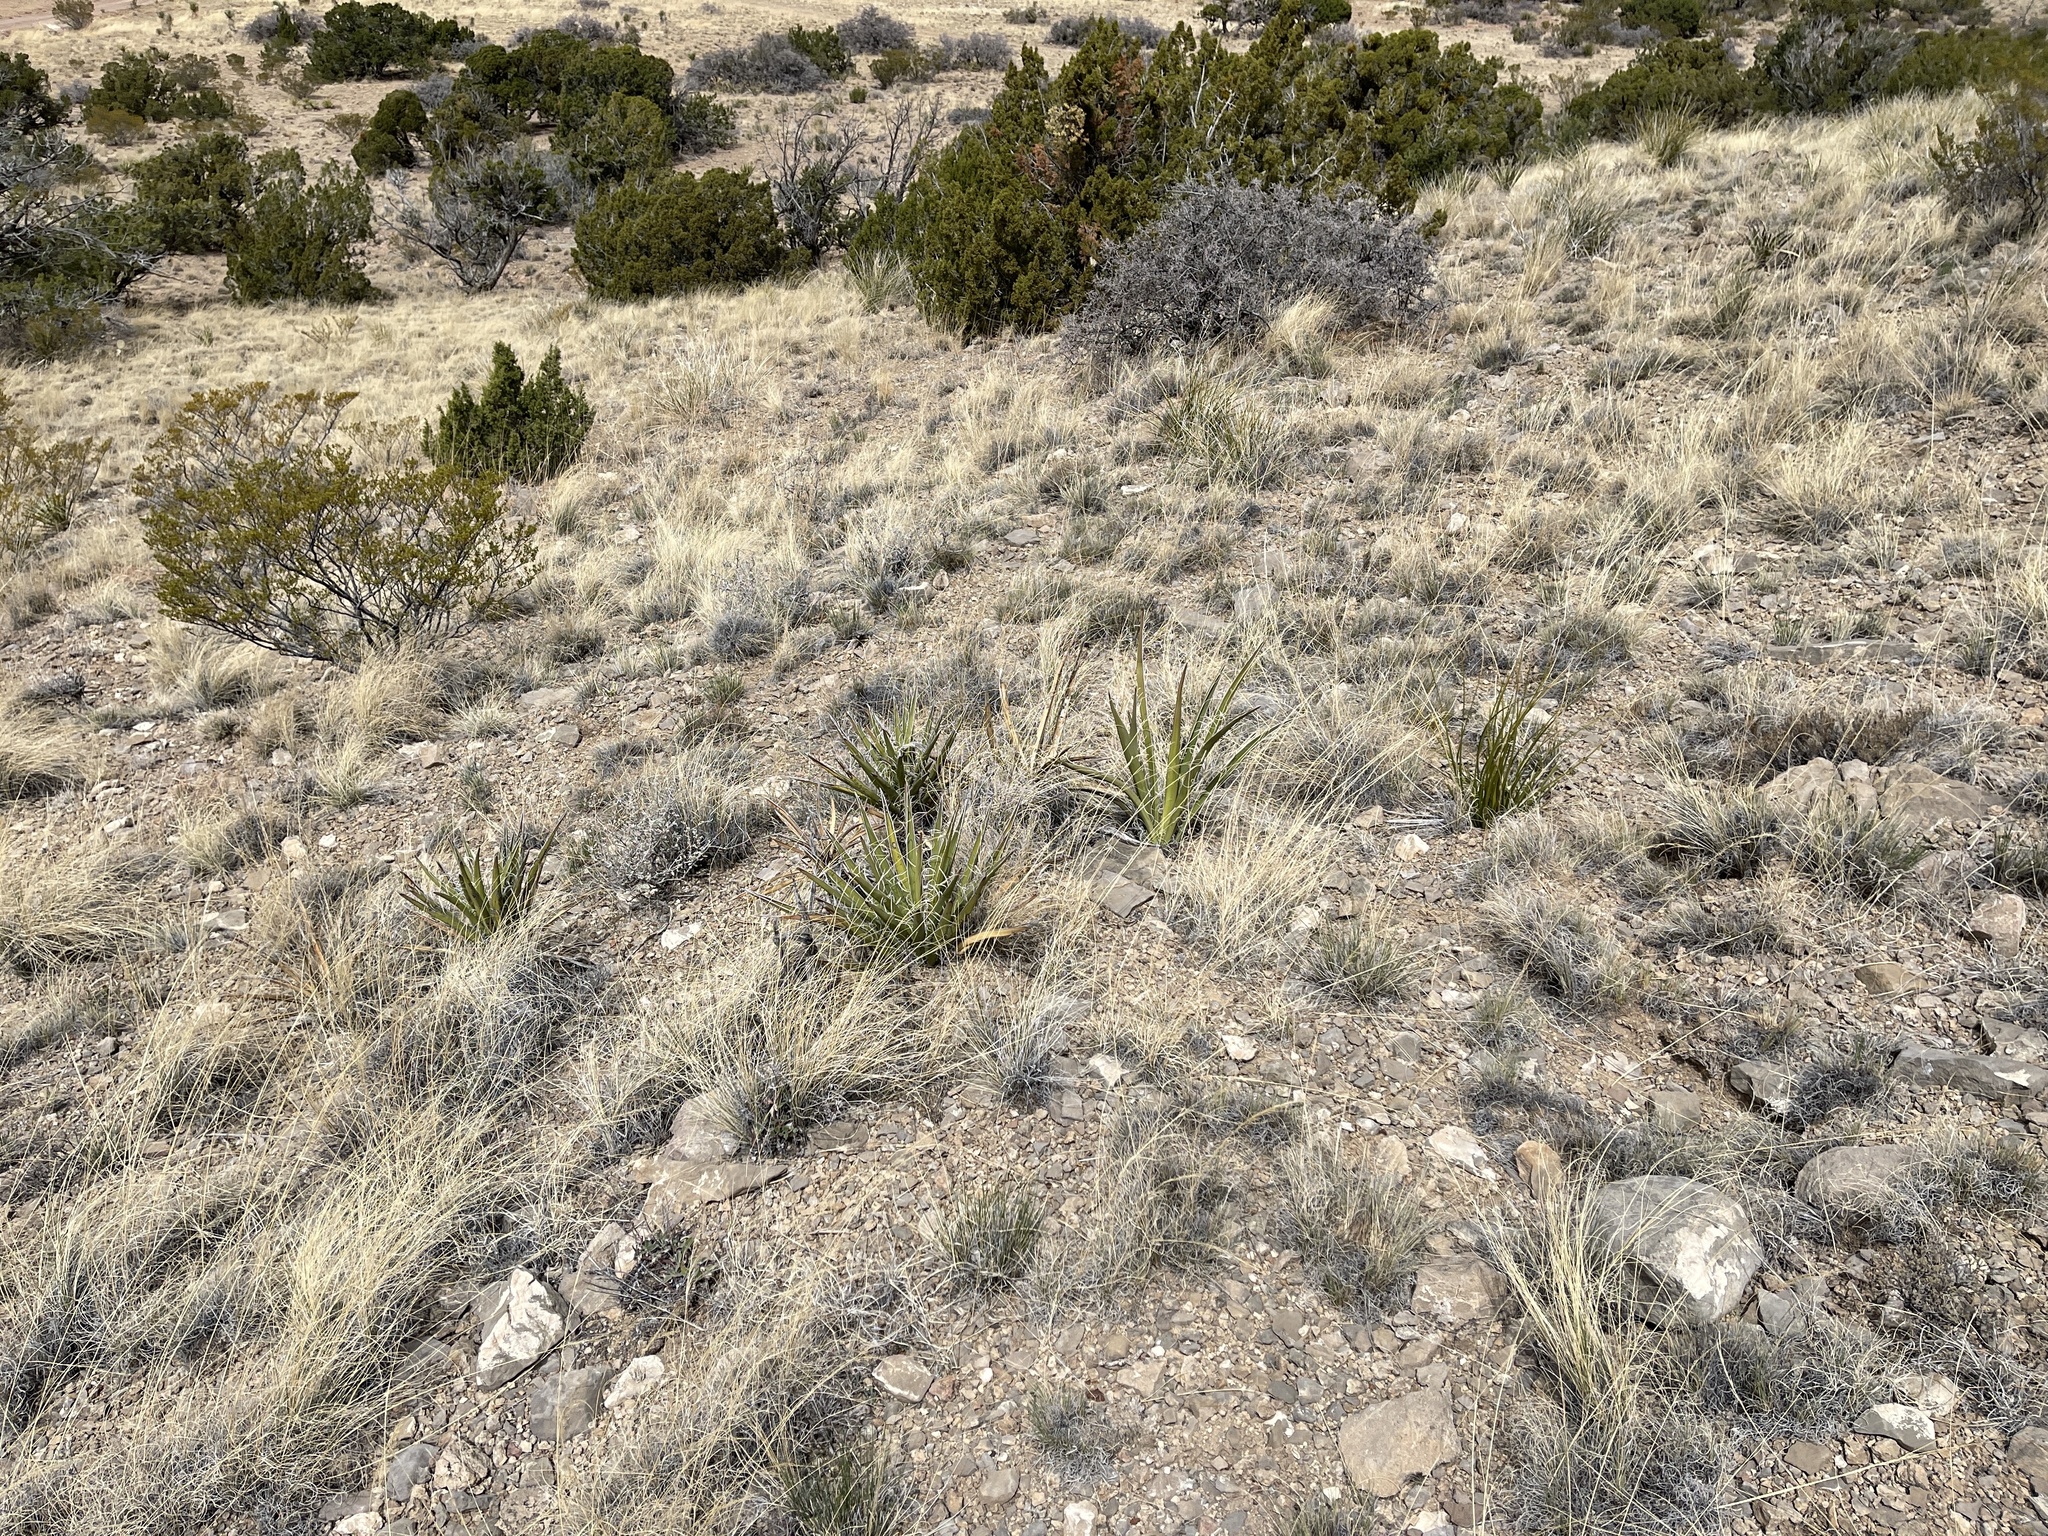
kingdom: Plantae
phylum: Tracheophyta
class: Liliopsida
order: Asparagales
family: Asparagaceae
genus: Yucca
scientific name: Yucca baccata
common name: Banana yucca
